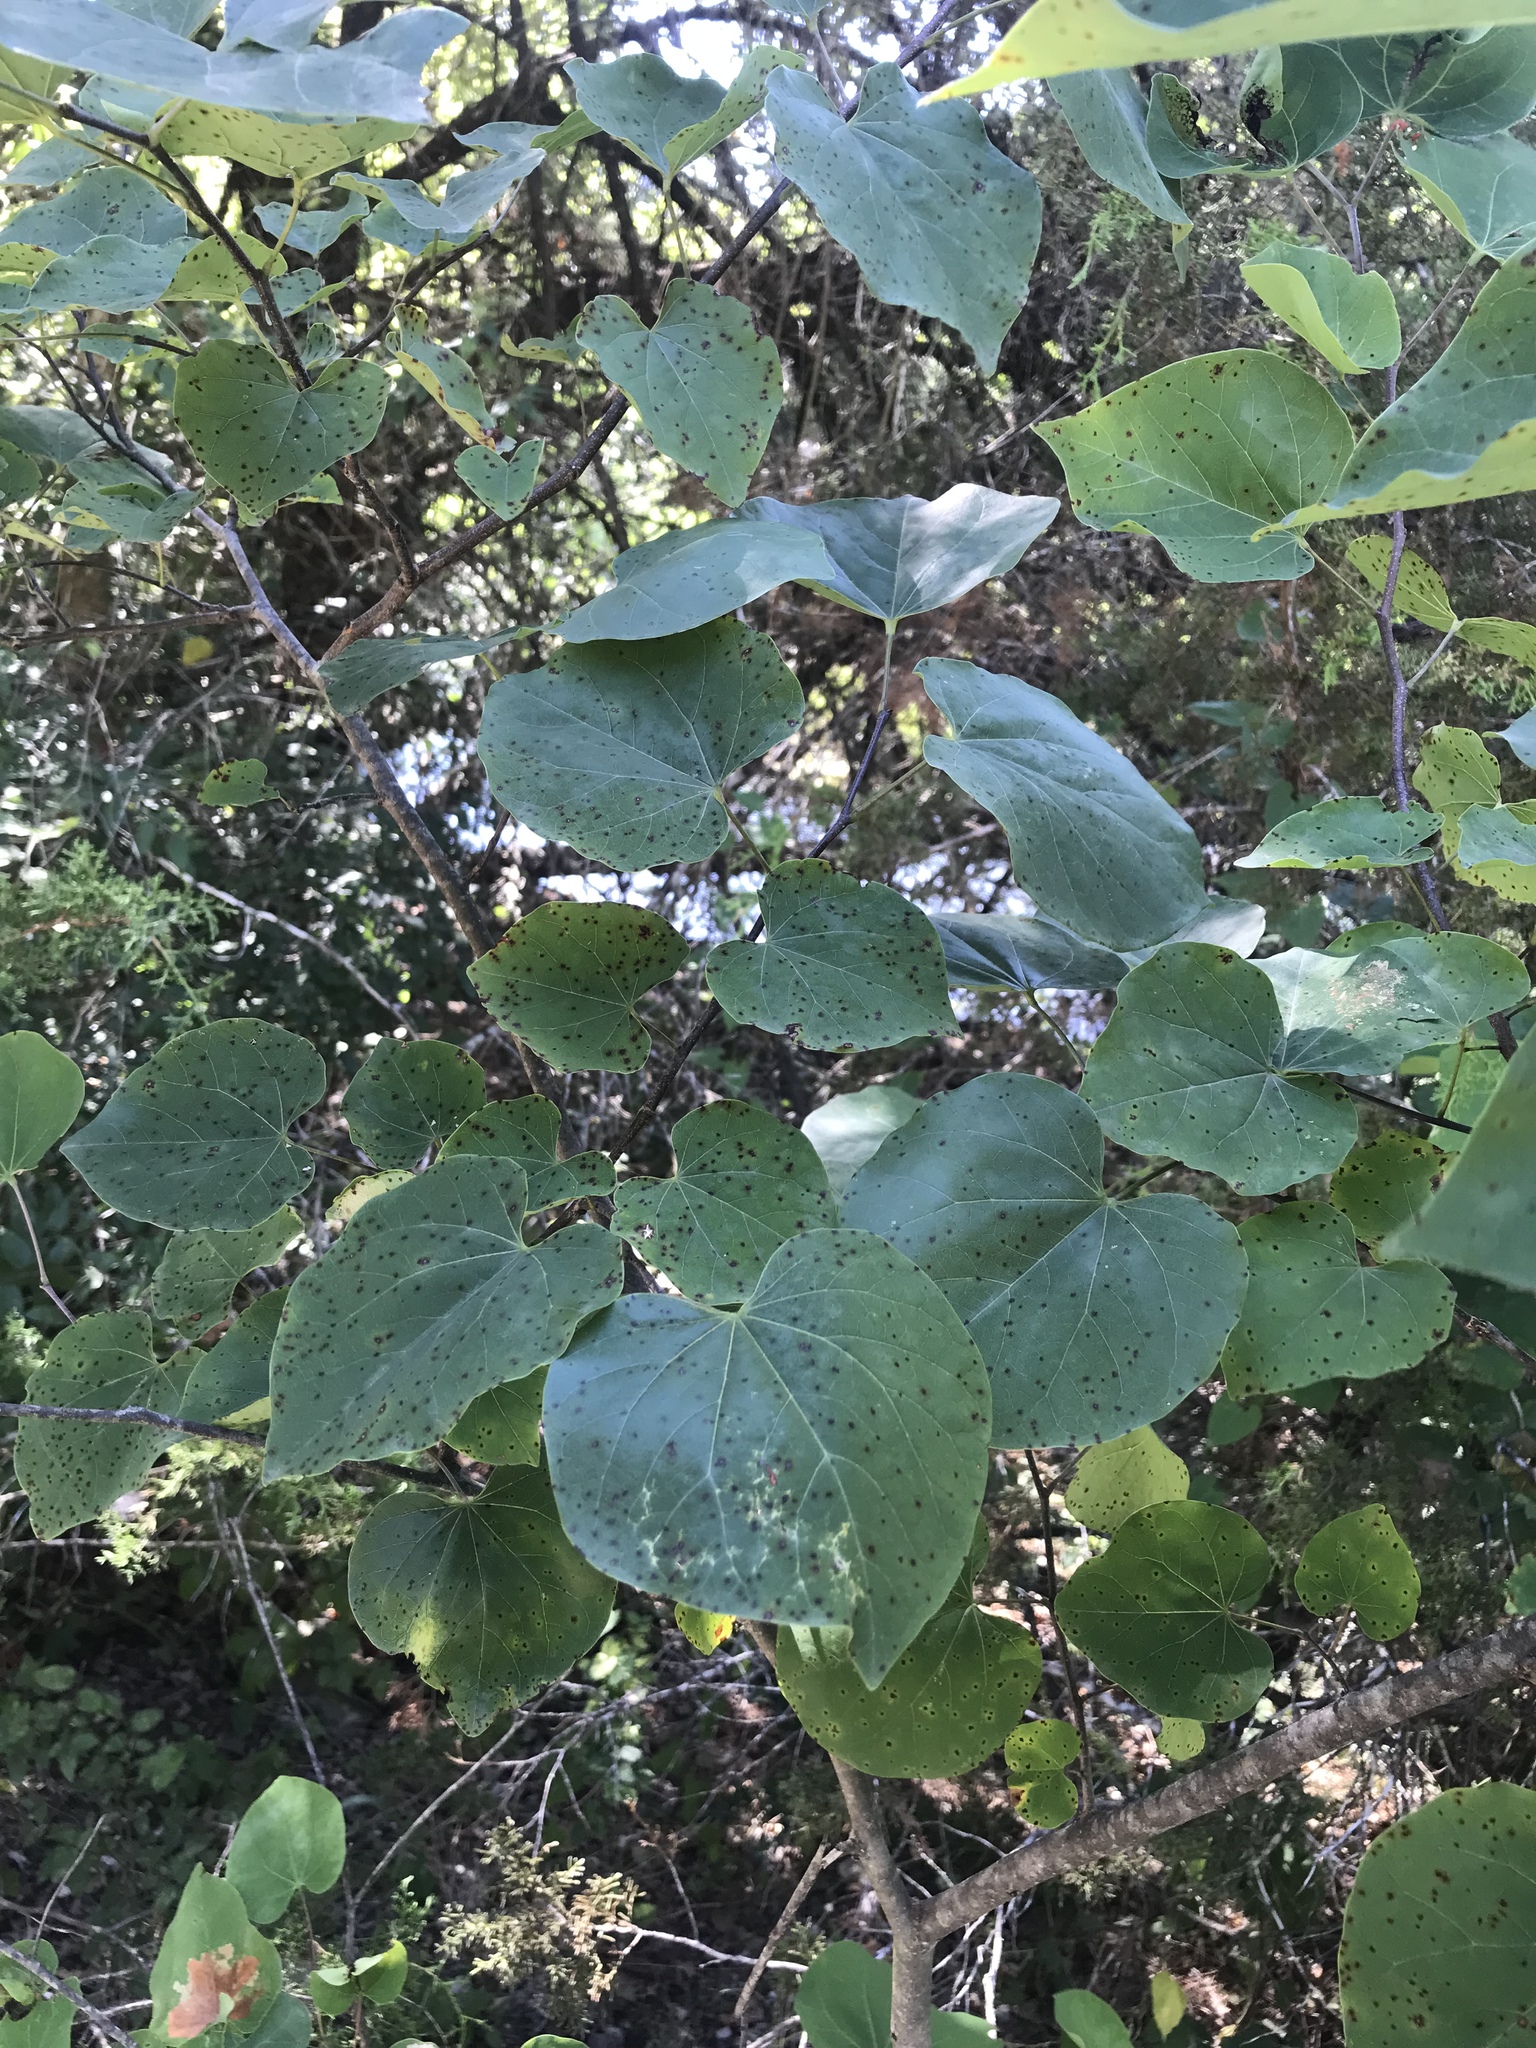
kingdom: Plantae
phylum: Tracheophyta
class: Magnoliopsida
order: Fabales
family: Fabaceae
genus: Cercis
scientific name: Cercis canadensis
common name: Eastern redbud
